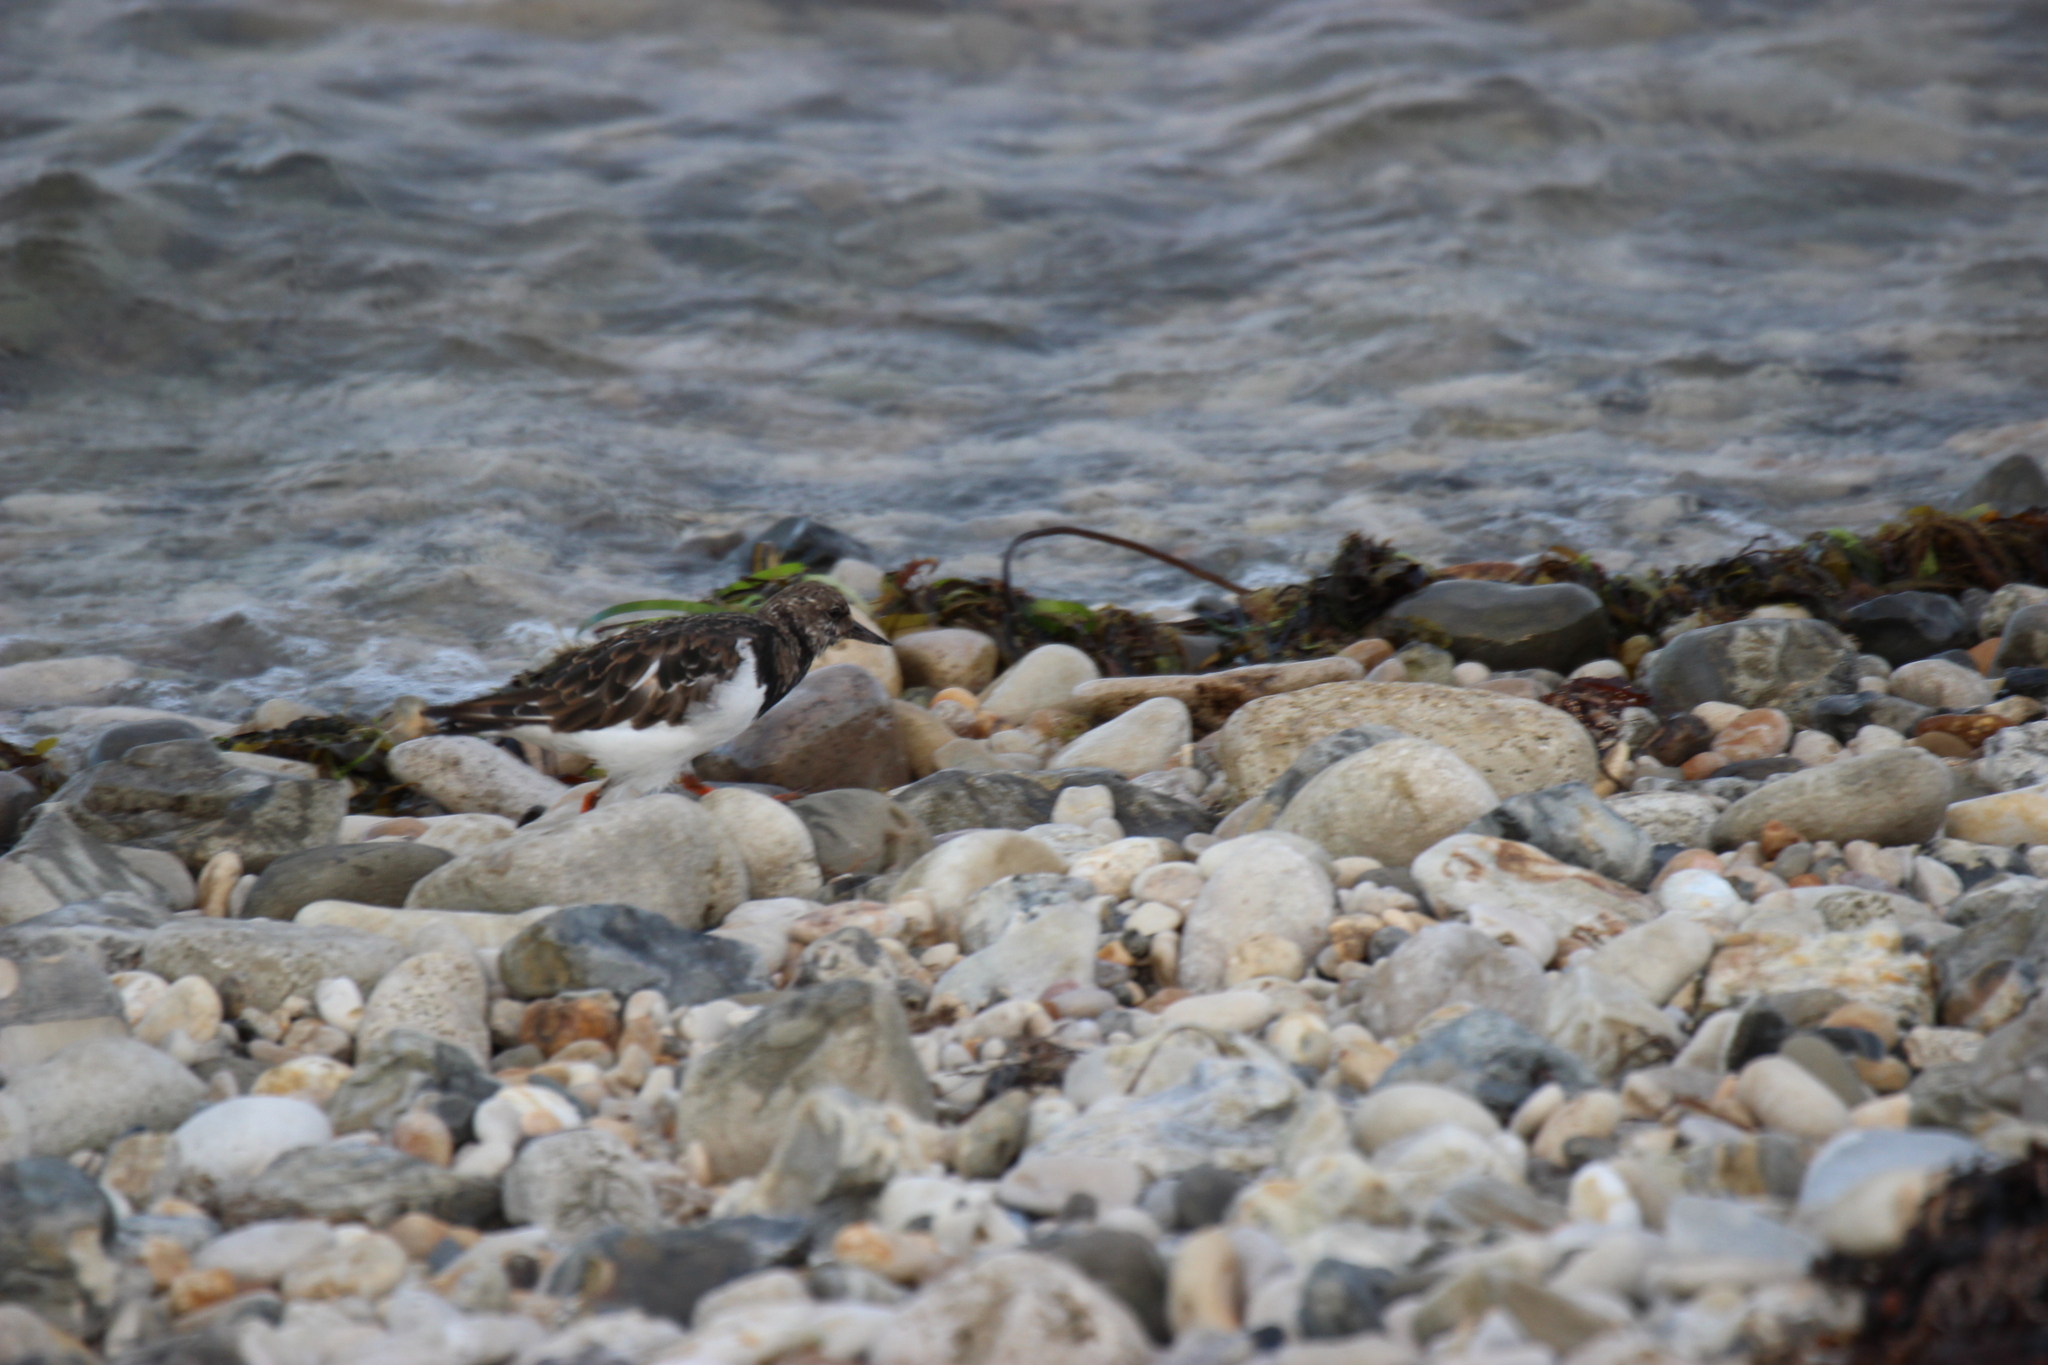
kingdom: Animalia
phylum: Chordata
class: Aves
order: Charadriiformes
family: Scolopacidae
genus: Arenaria
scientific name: Arenaria interpres
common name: Ruddy turnstone
